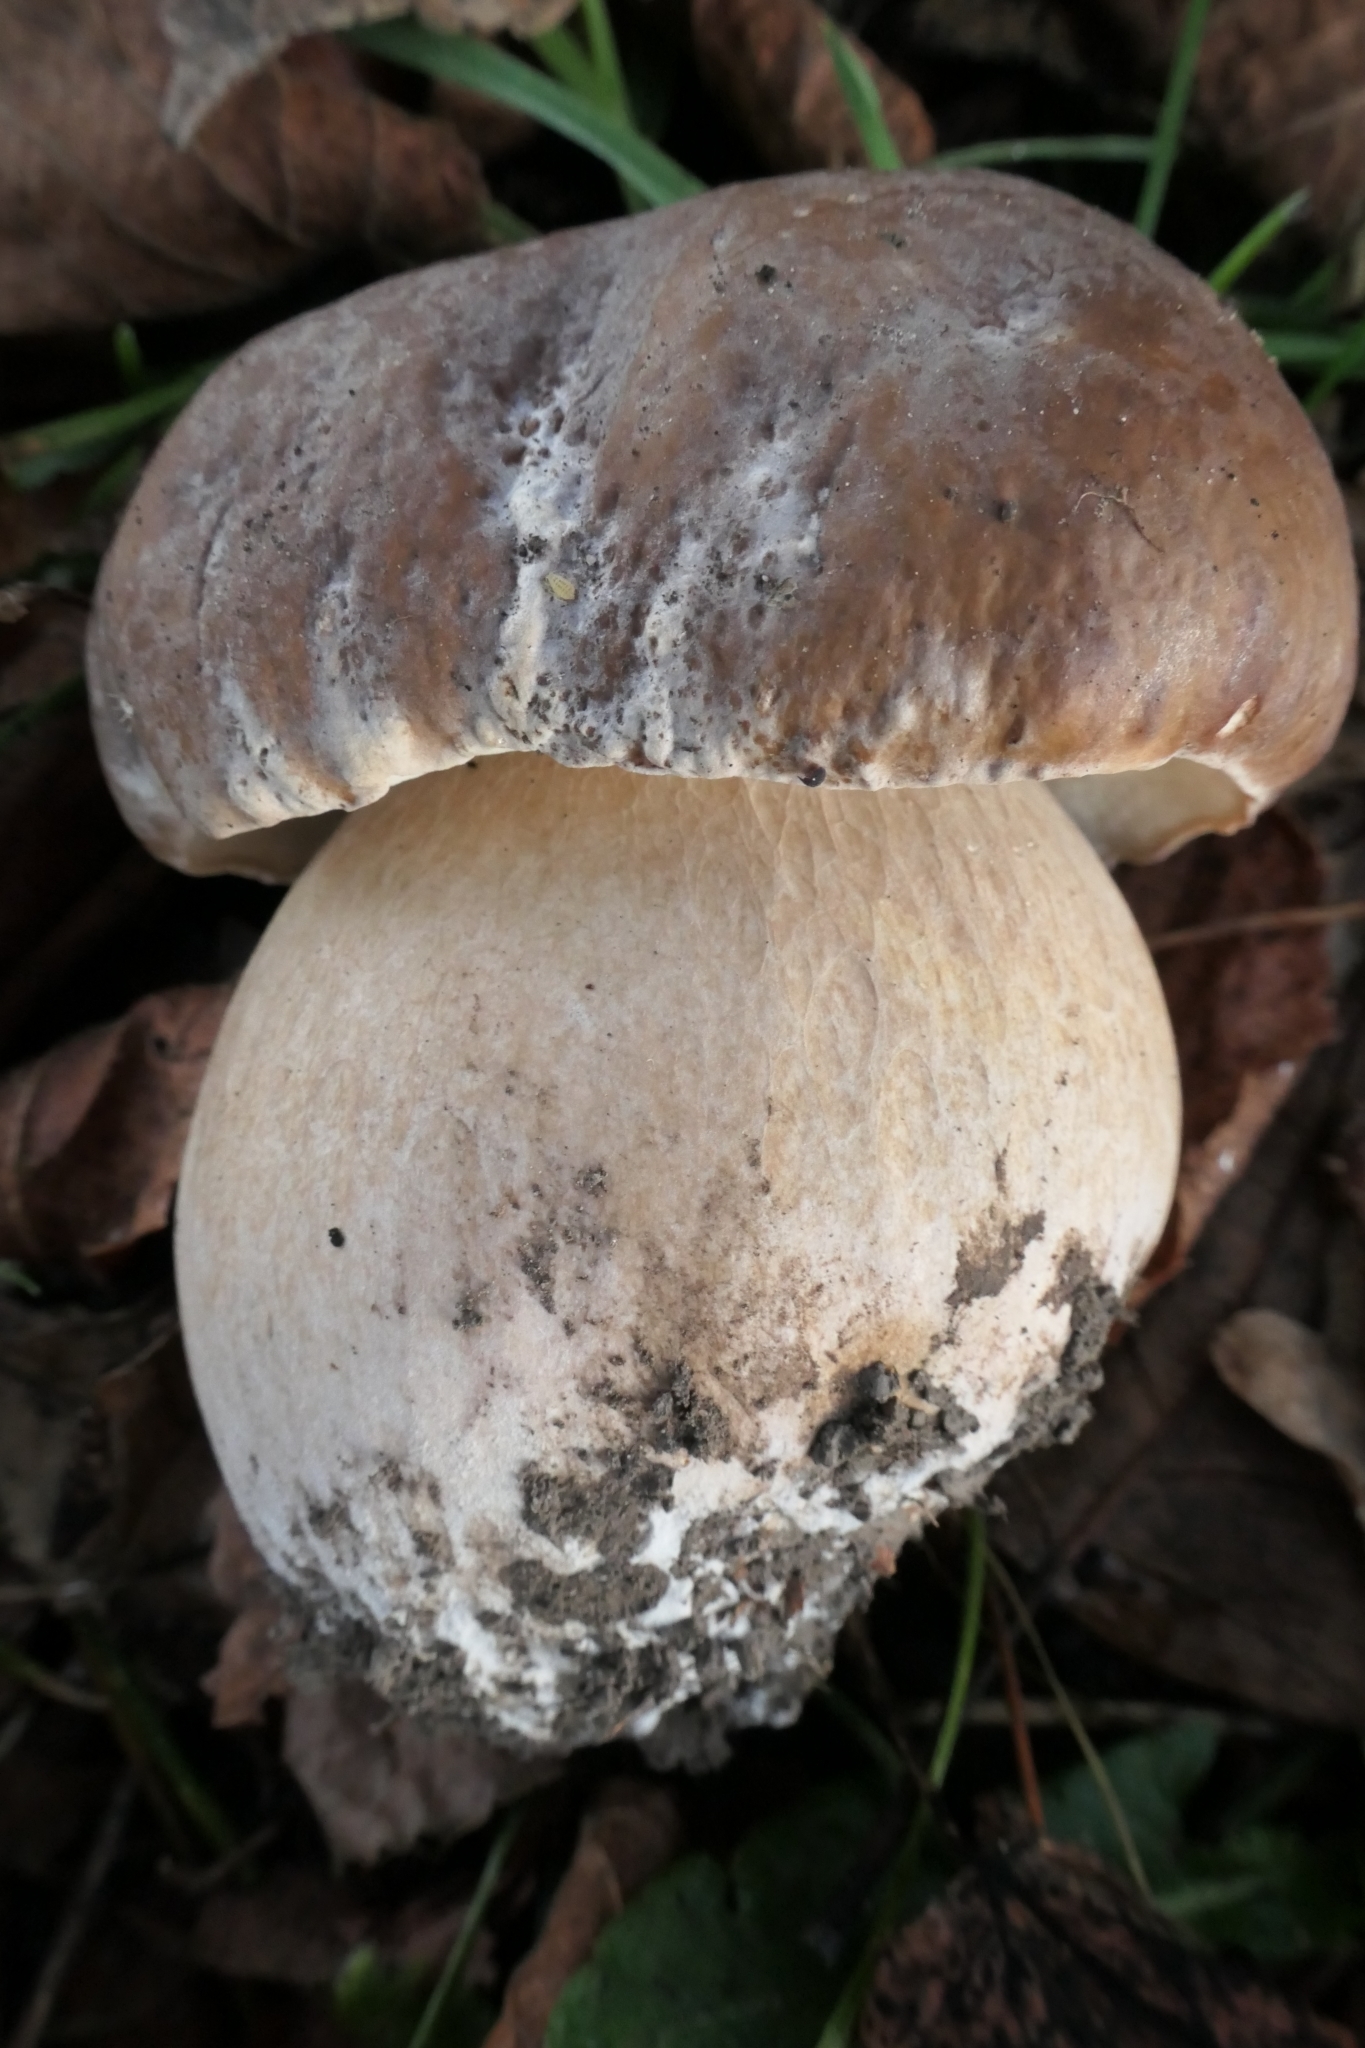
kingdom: Fungi
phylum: Basidiomycota
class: Agaricomycetes
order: Boletales
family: Boletaceae
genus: Boletus
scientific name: Boletus edulis
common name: Cep
